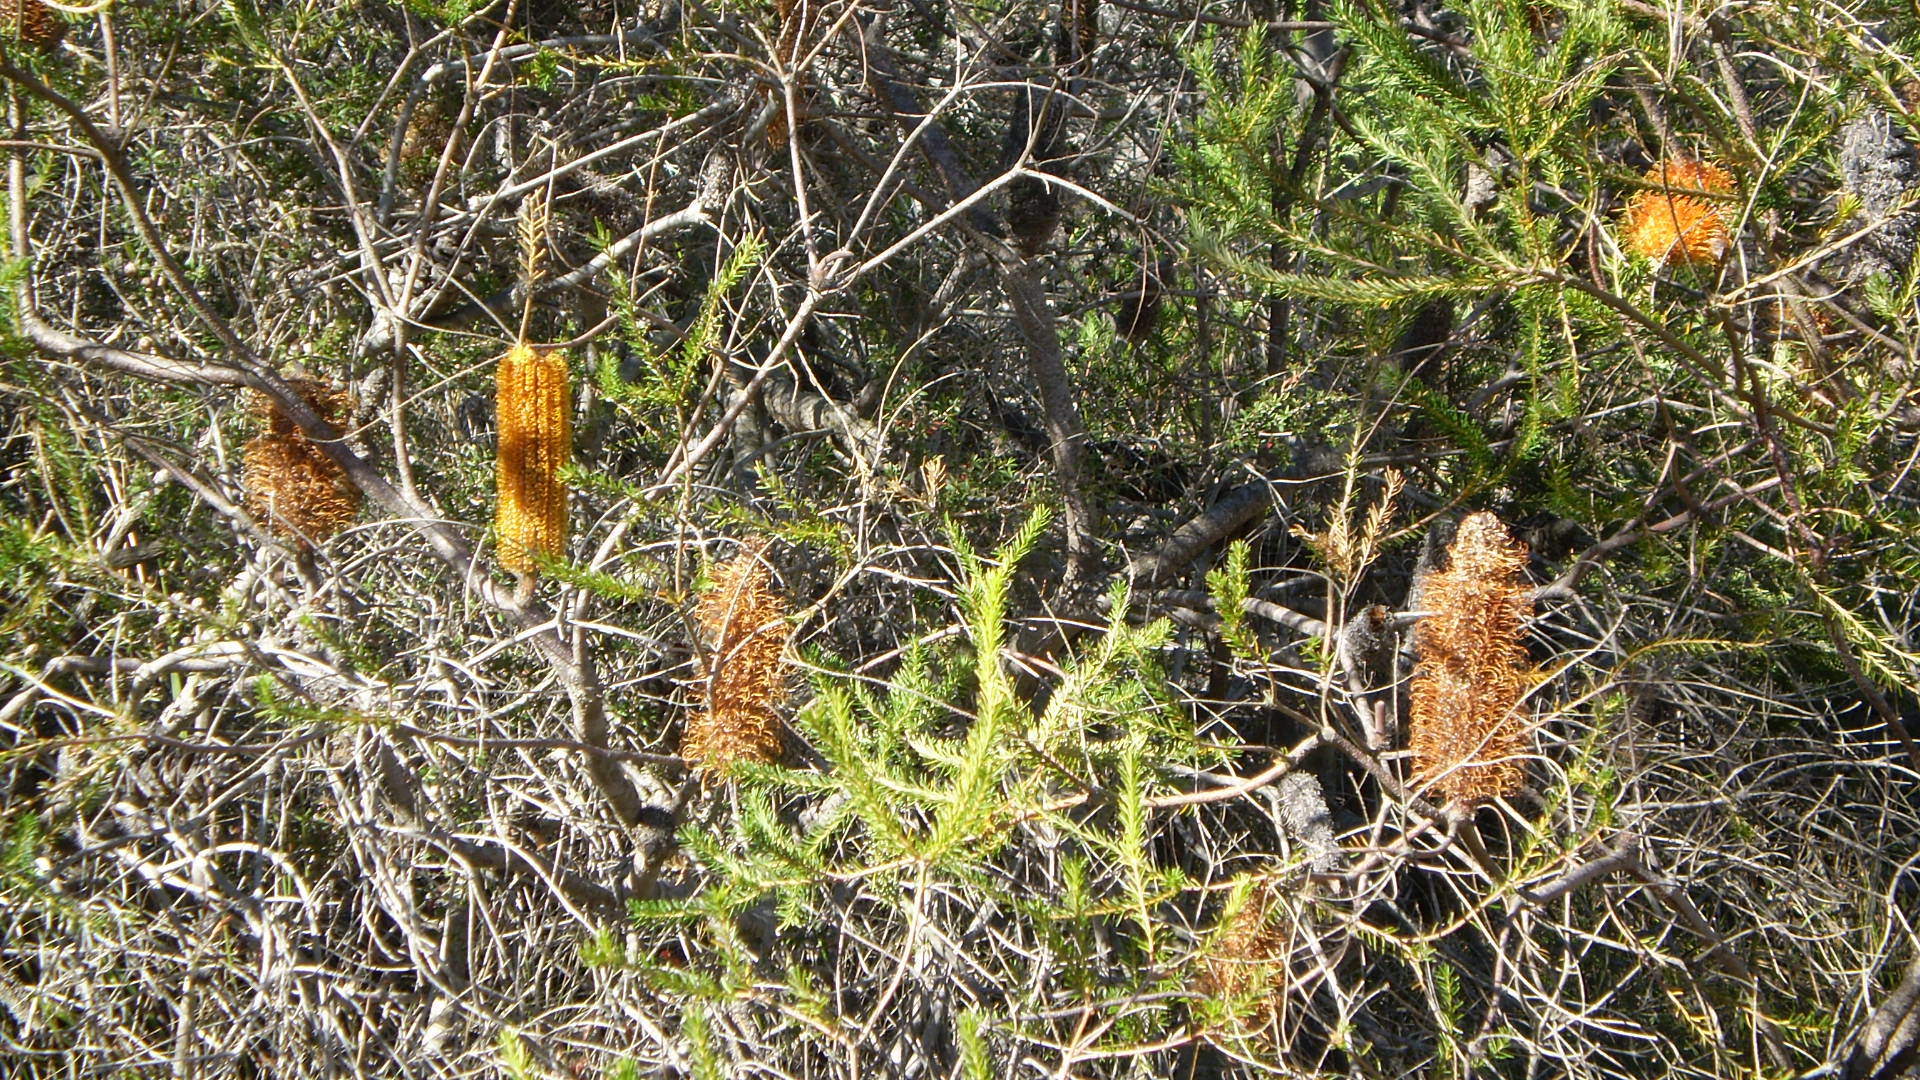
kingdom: Plantae
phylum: Tracheophyta
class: Magnoliopsida
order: Proteales
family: Proteaceae
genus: Banksia
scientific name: Banksia ericifolia
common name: Heath-leaf banksia
